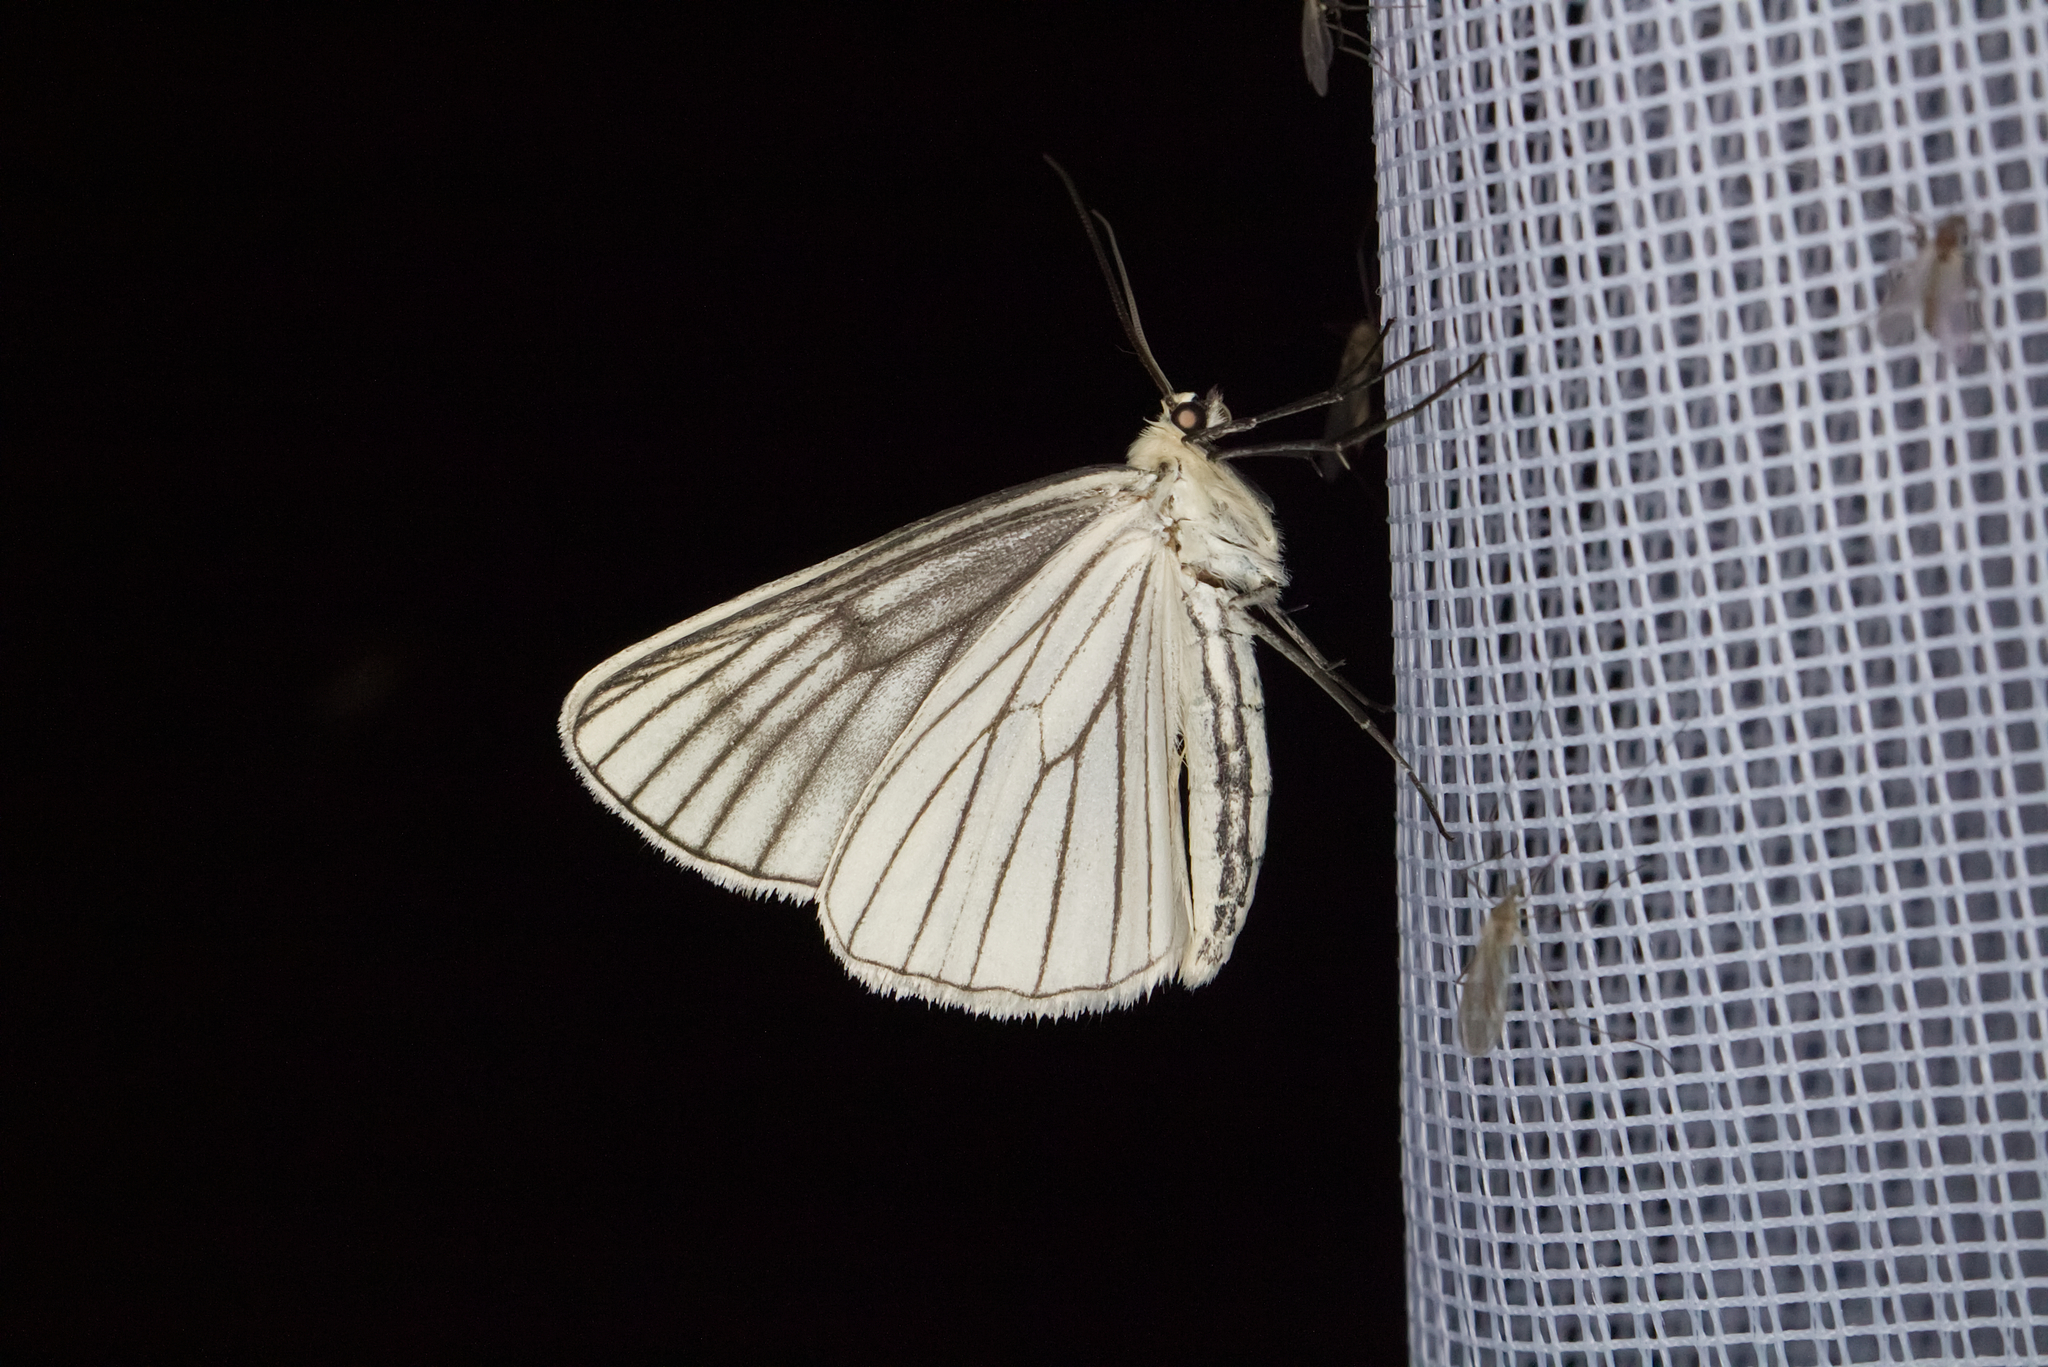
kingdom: Animalia
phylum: Arthropoda
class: Insecta
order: Lepidoptera
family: Geometridae
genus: Siona
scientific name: Siona lineata
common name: Black-veined moth
